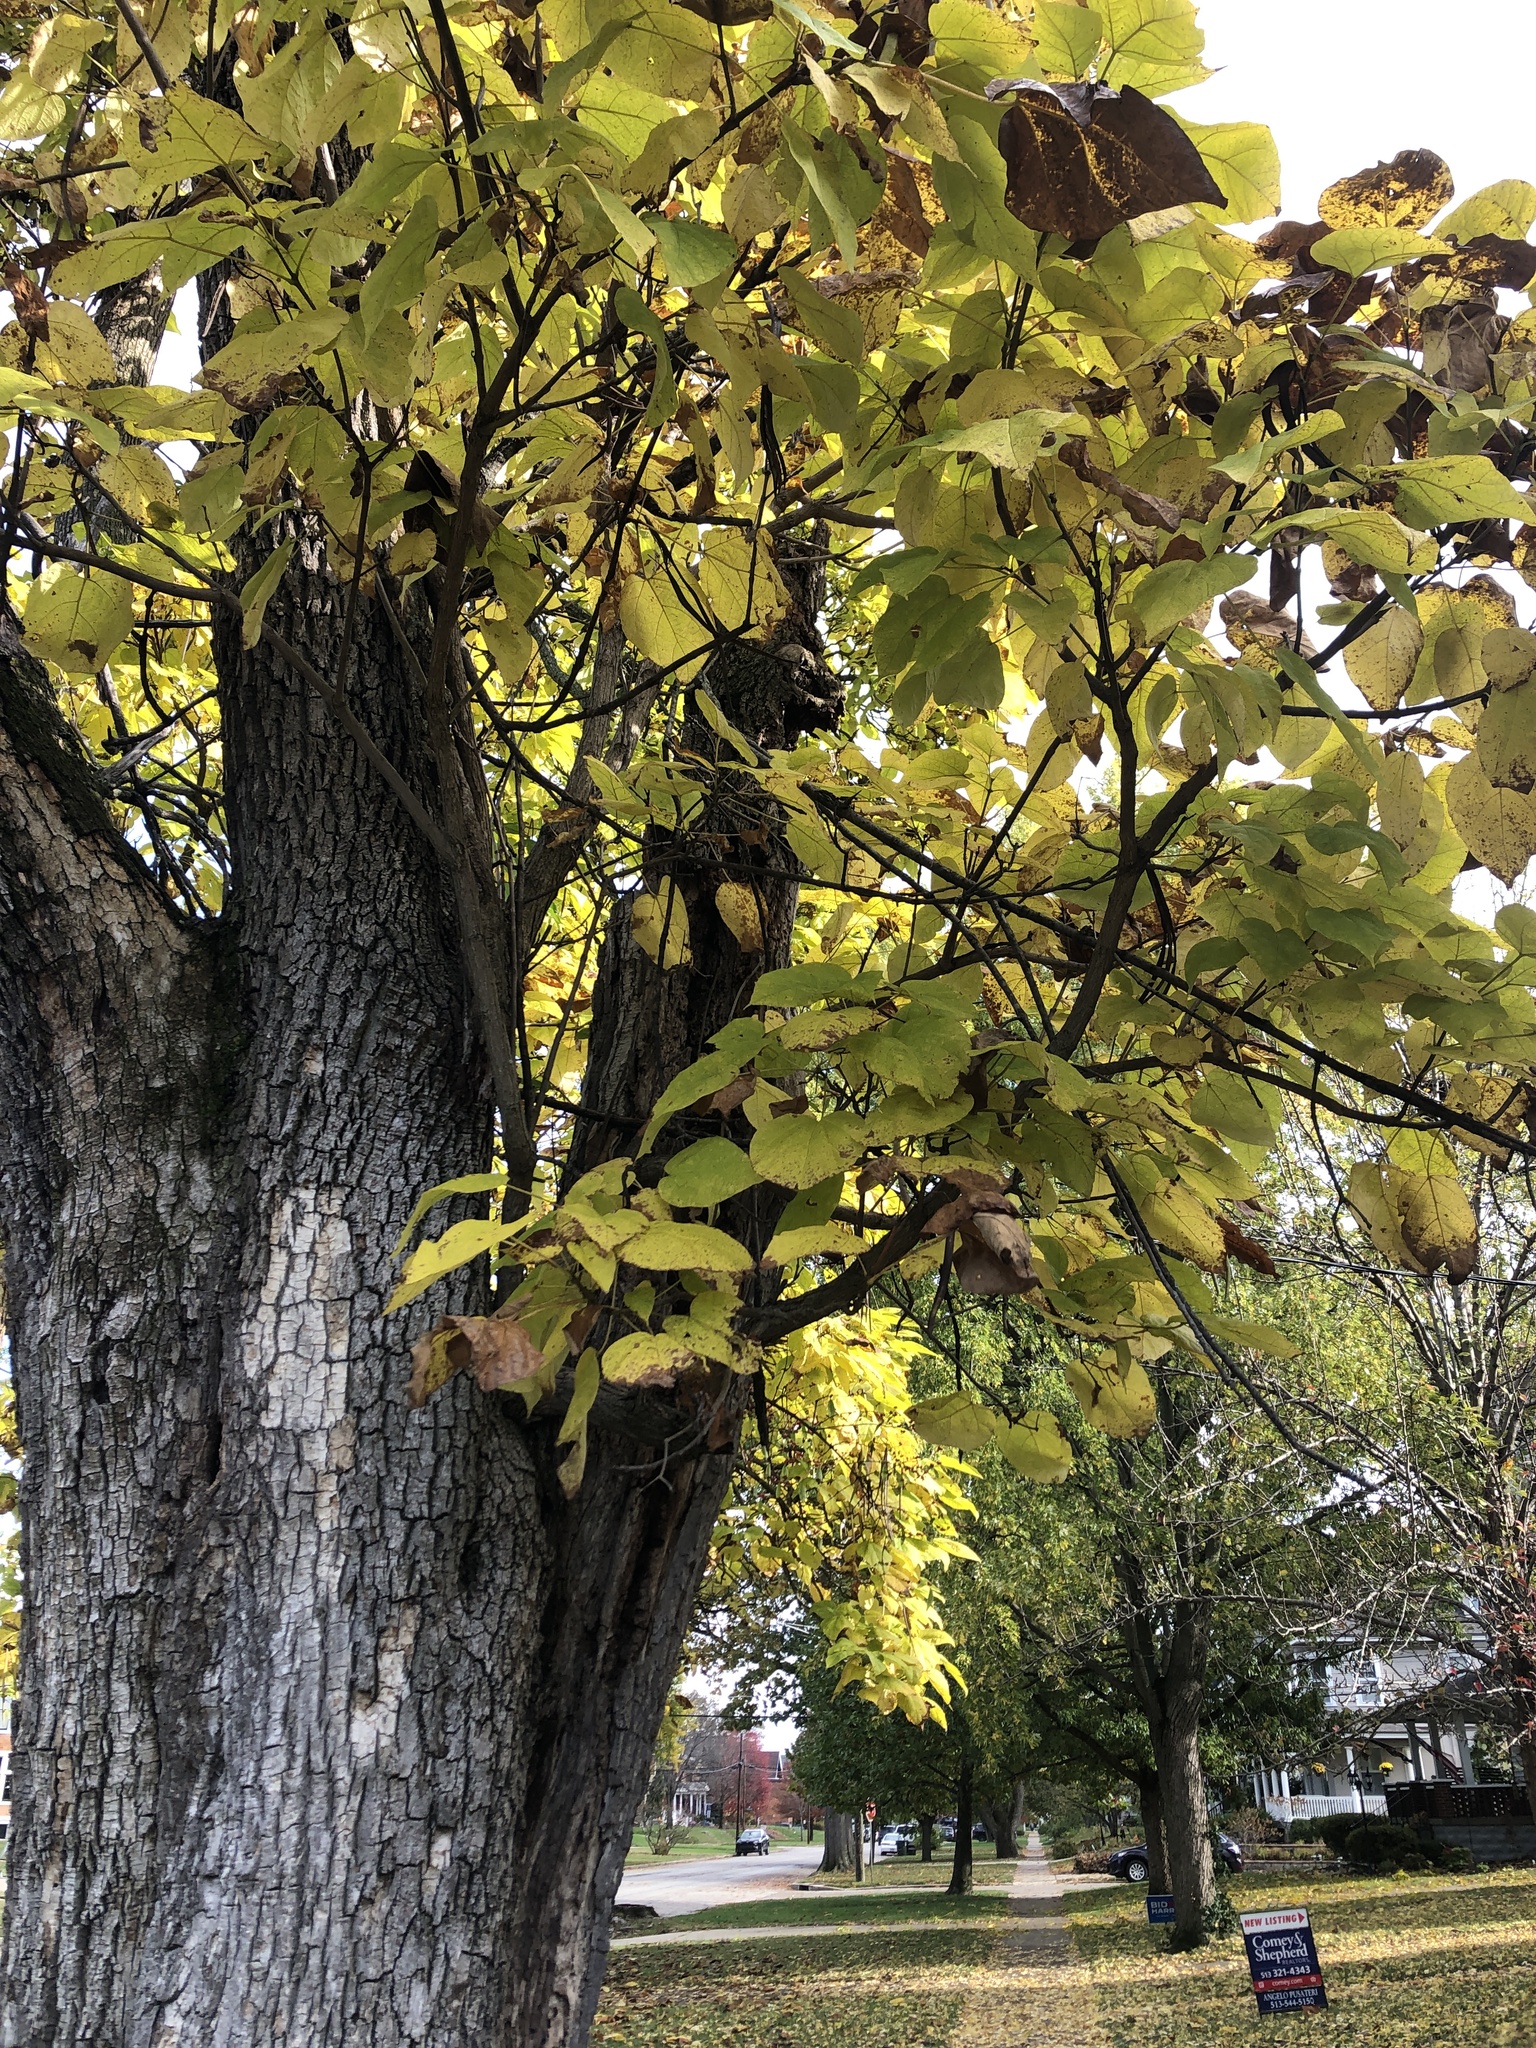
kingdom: Plantae
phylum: Tracheophyta
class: Magnoliopsida
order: Lamiales
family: Bignoniaceae
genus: Catalpa
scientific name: Catalpa speciosa
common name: Northern catalpa
